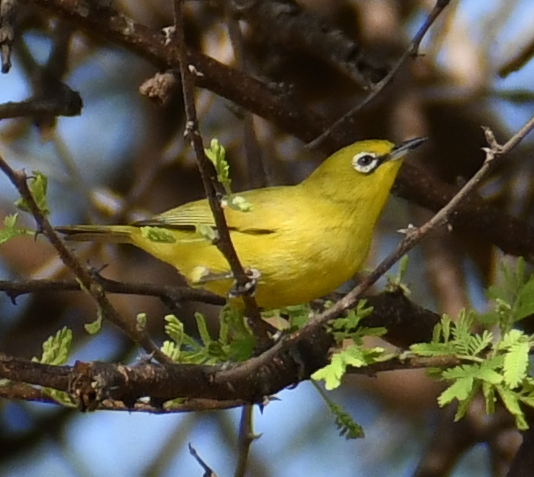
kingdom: Animalia
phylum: Chordata
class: Aves
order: Passeriformes
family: Zosteropidae
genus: Zosterops
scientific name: Zosterops anderssoni
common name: Southern yellow white-eye
